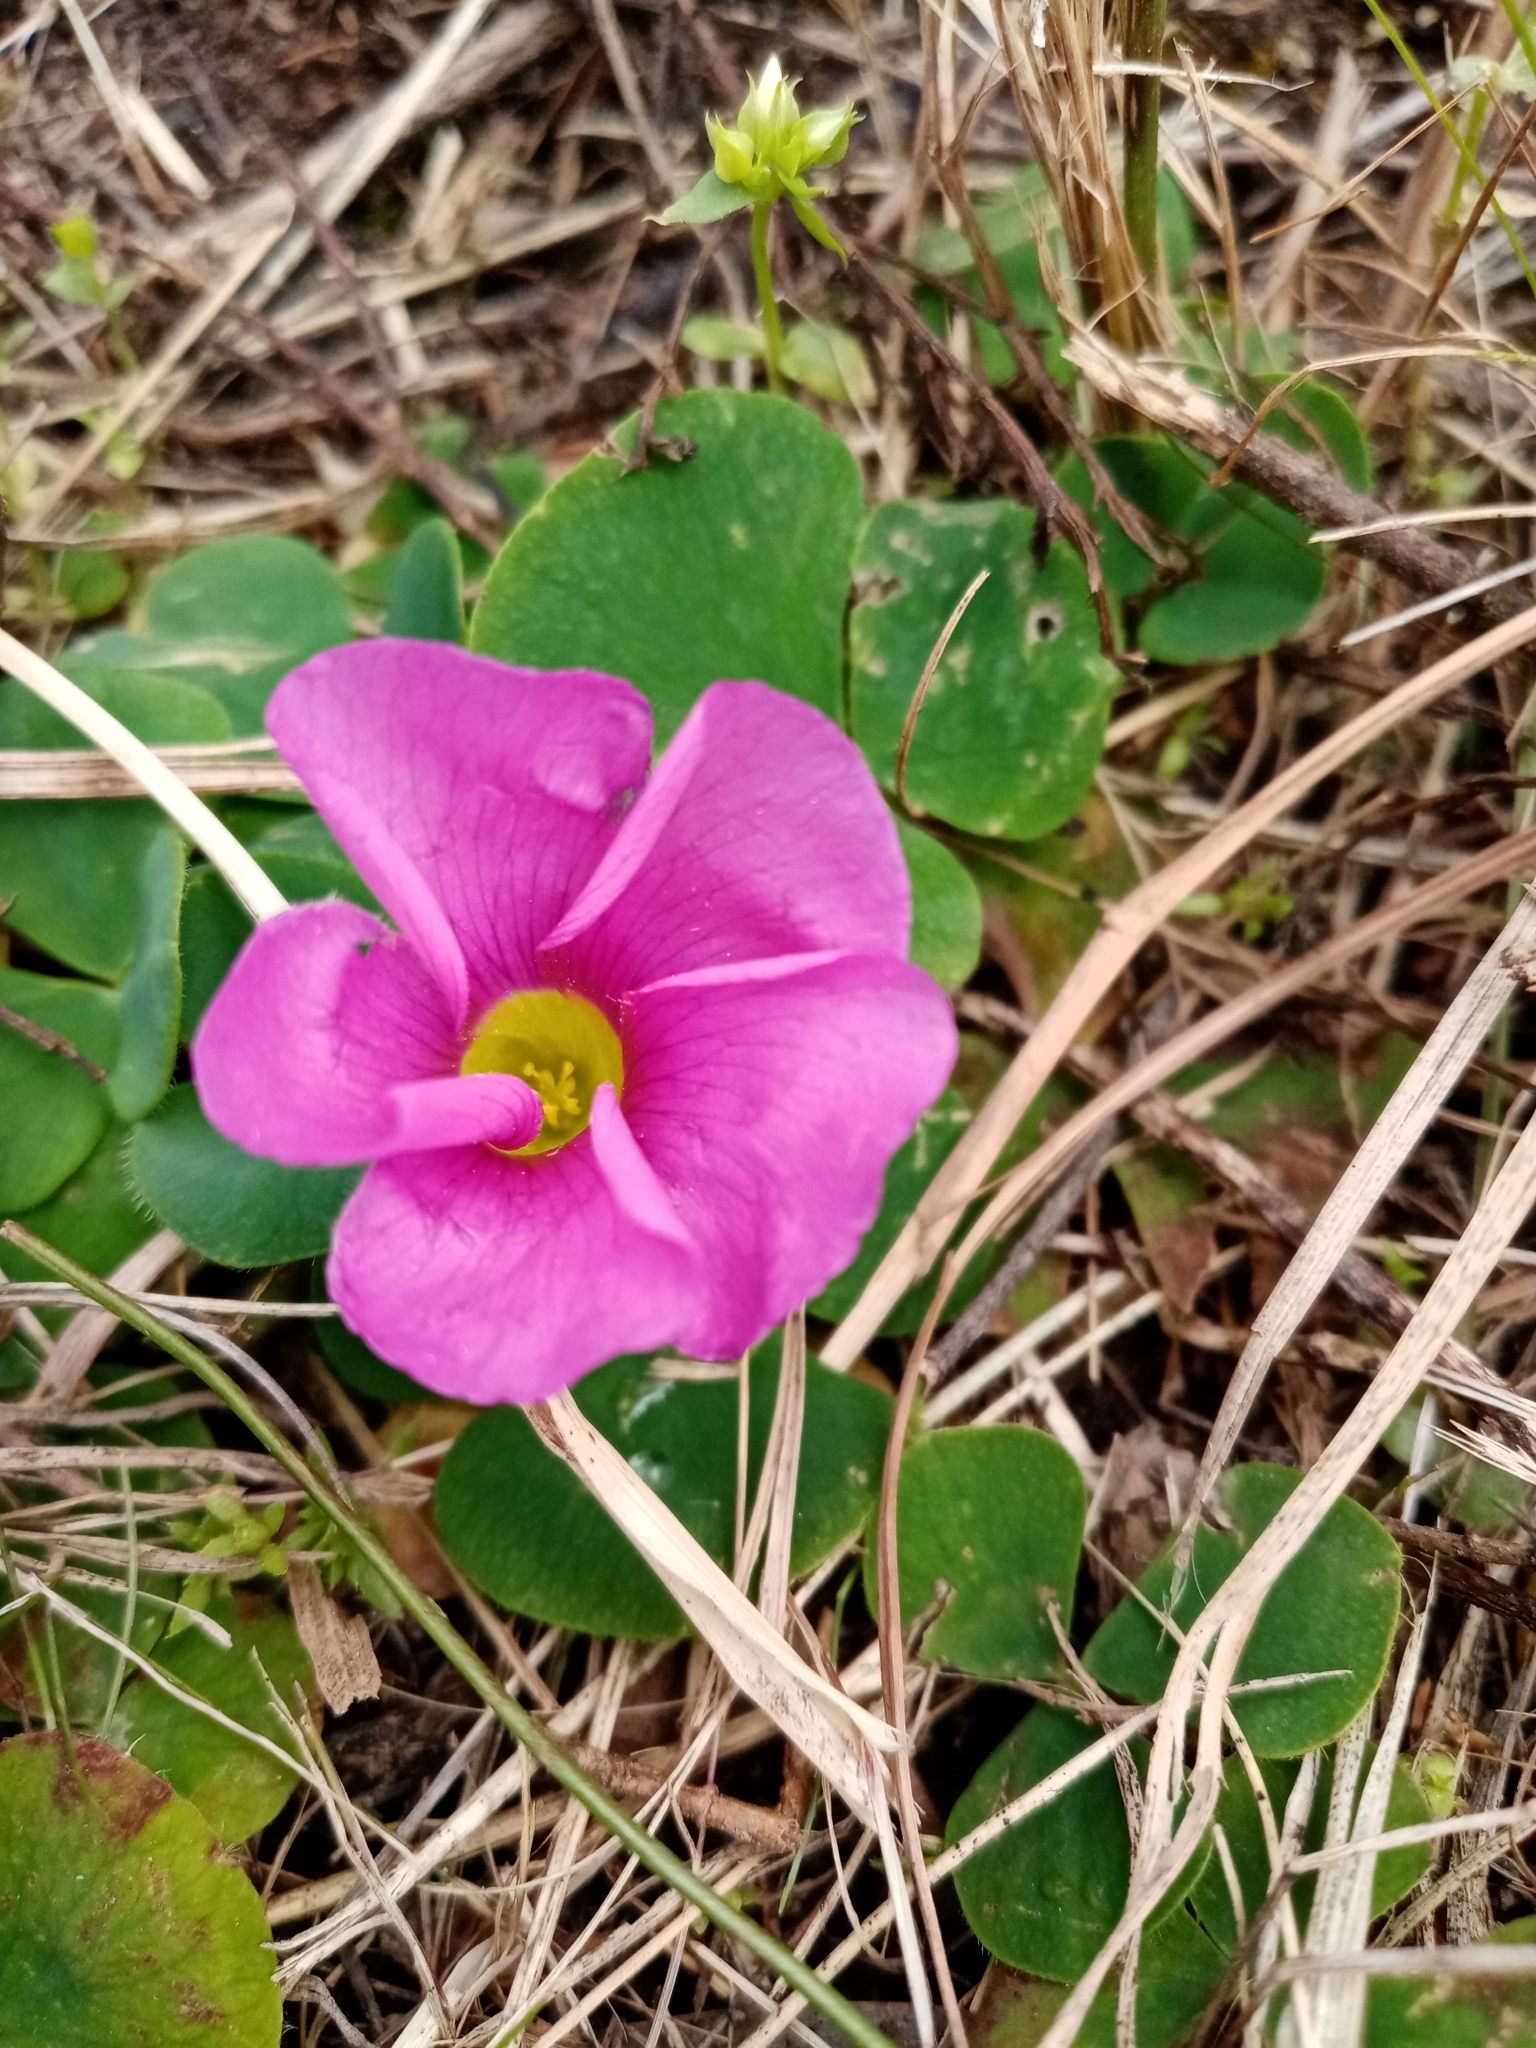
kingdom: Plantae
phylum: Tracheophyta
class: Magnoliopsida
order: Oxalidales
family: Oxalidaceae
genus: Oxalis
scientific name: Oxalis purpurea
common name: Purple woodsorrel
